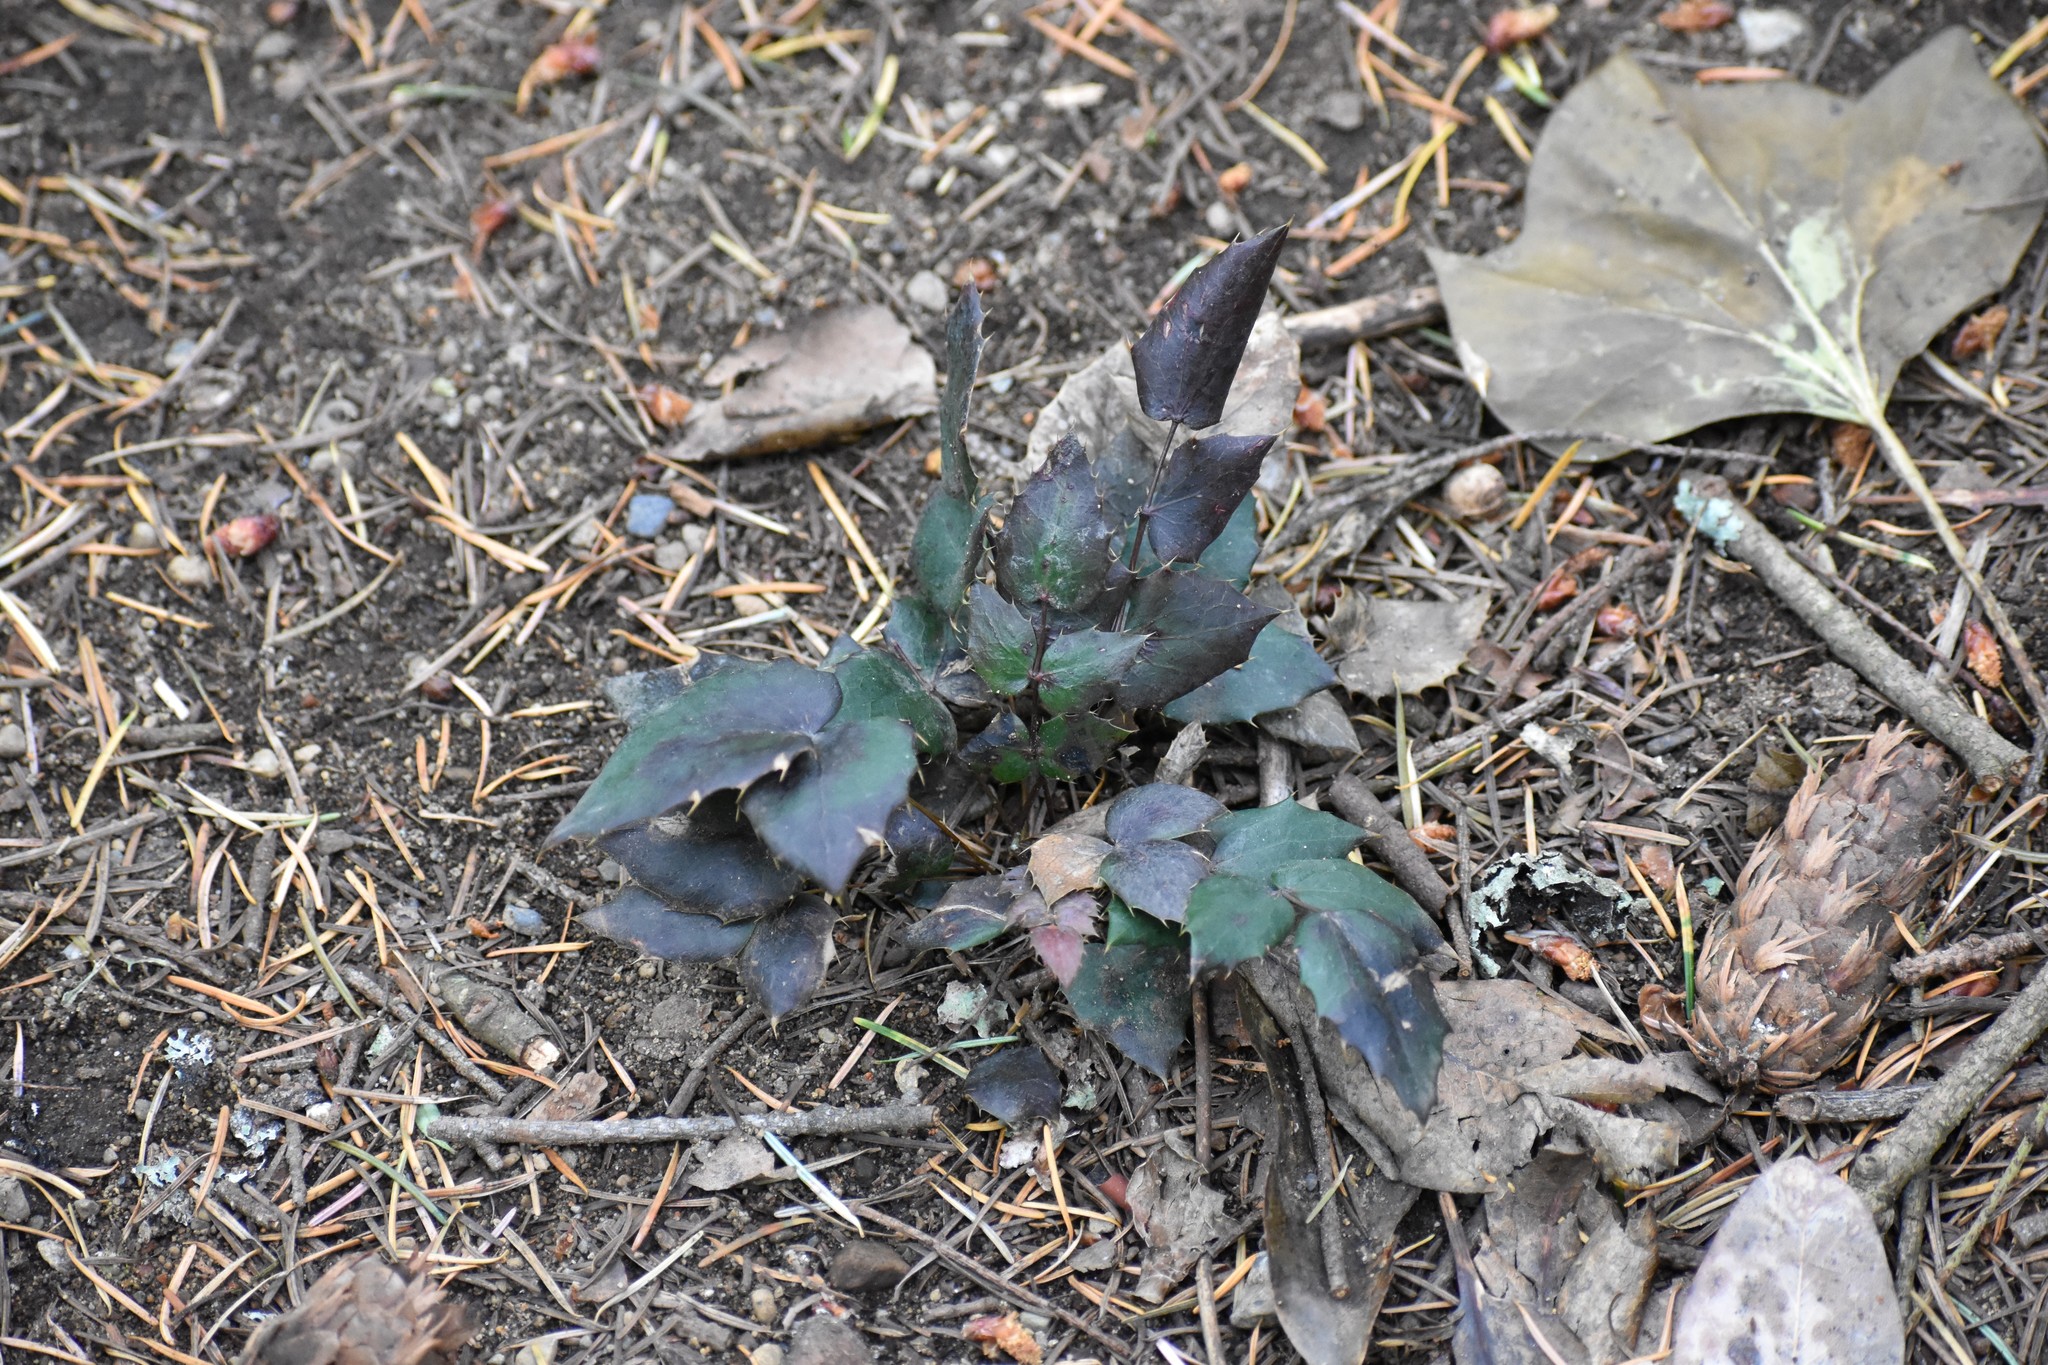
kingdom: Plantae
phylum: Tracheophyta
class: Magnoliopsida
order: Ranunculales
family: Berberidaceae
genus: Mahonia
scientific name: Mahonia nervosa
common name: Cascade oregon-grape
